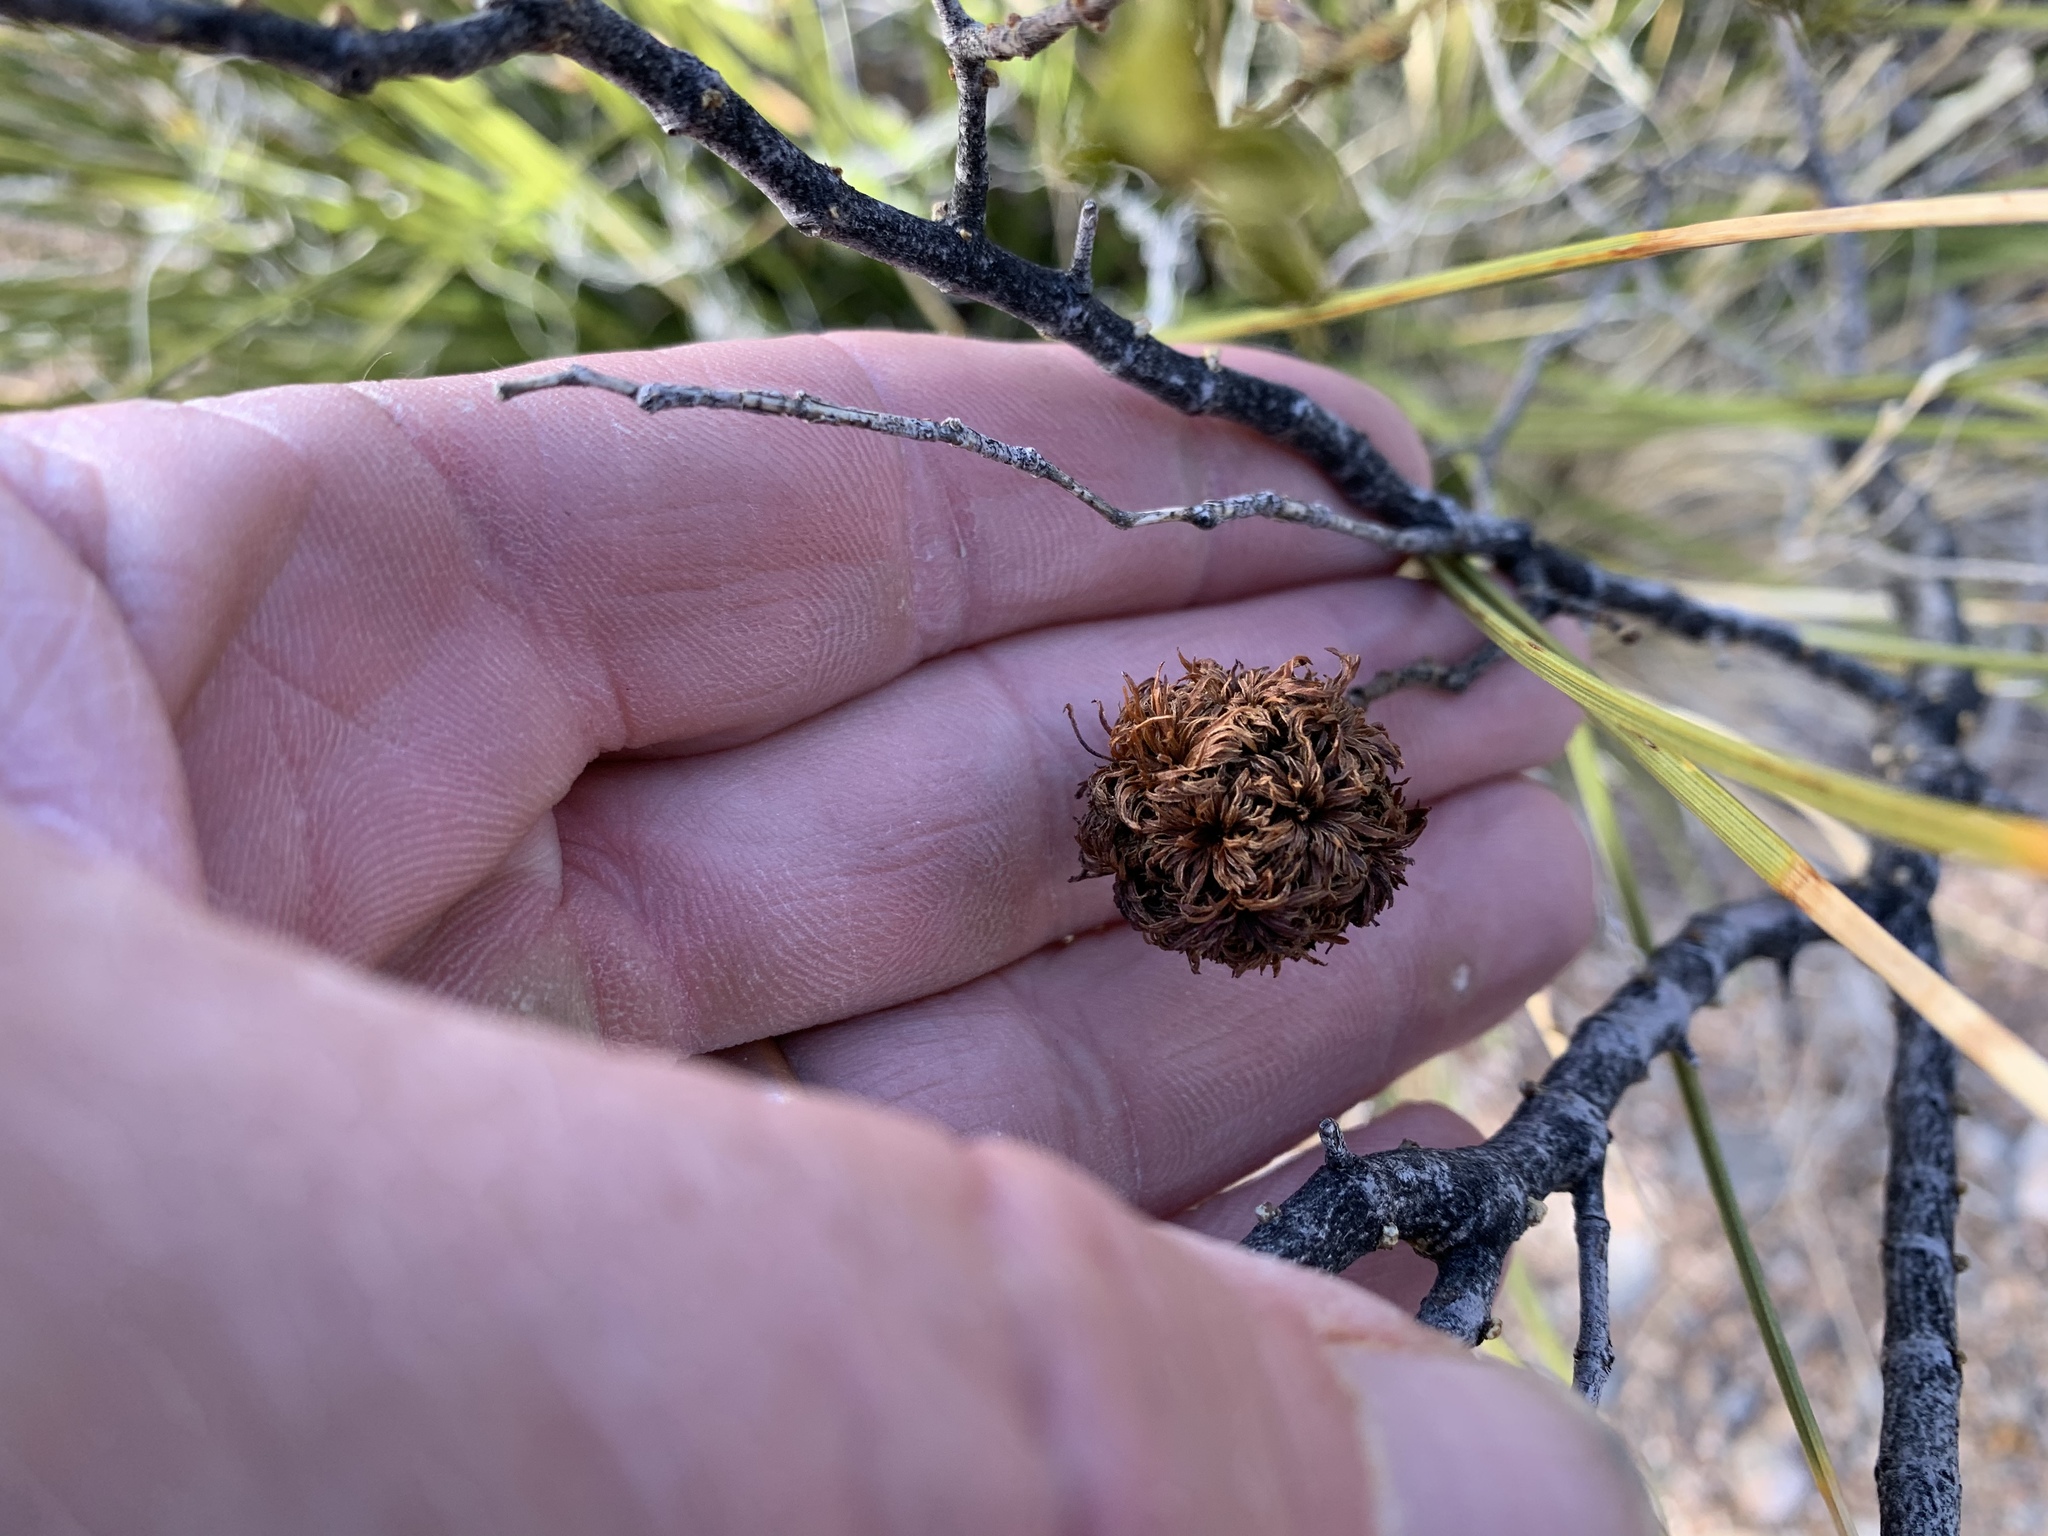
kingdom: Animalia
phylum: Arthropoda
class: Insecta
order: Diptera
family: Cecidomyiidae
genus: Asphondylia
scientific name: Asphondylia auripila
